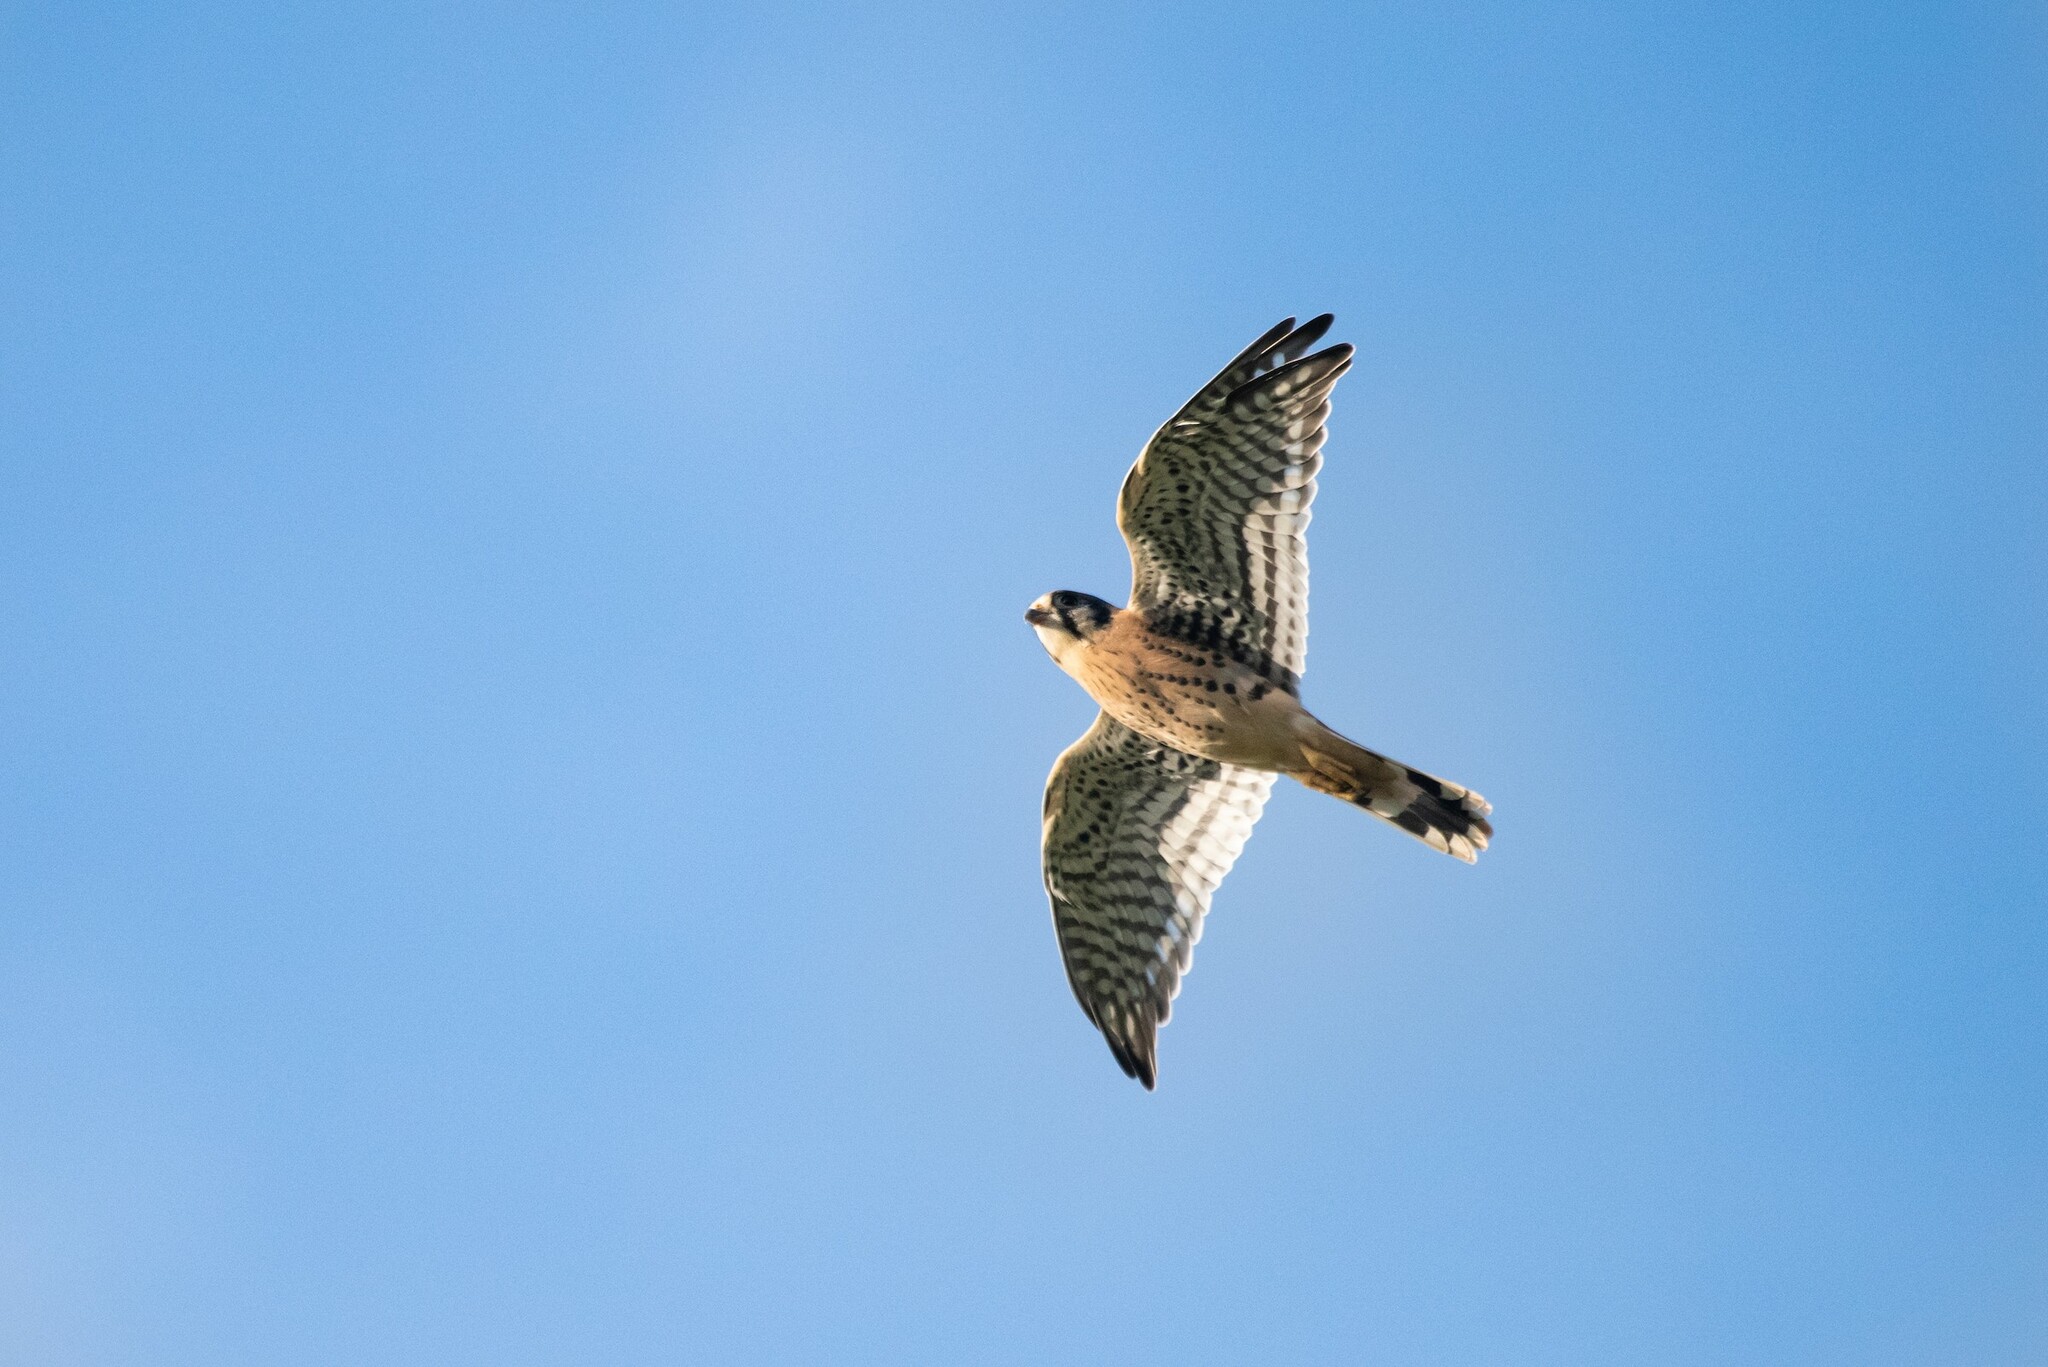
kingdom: Animalia
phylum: Chordata
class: Aves
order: Falconiformes
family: Falconidae
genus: Falco
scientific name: Falco sparverius
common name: American kestrel
